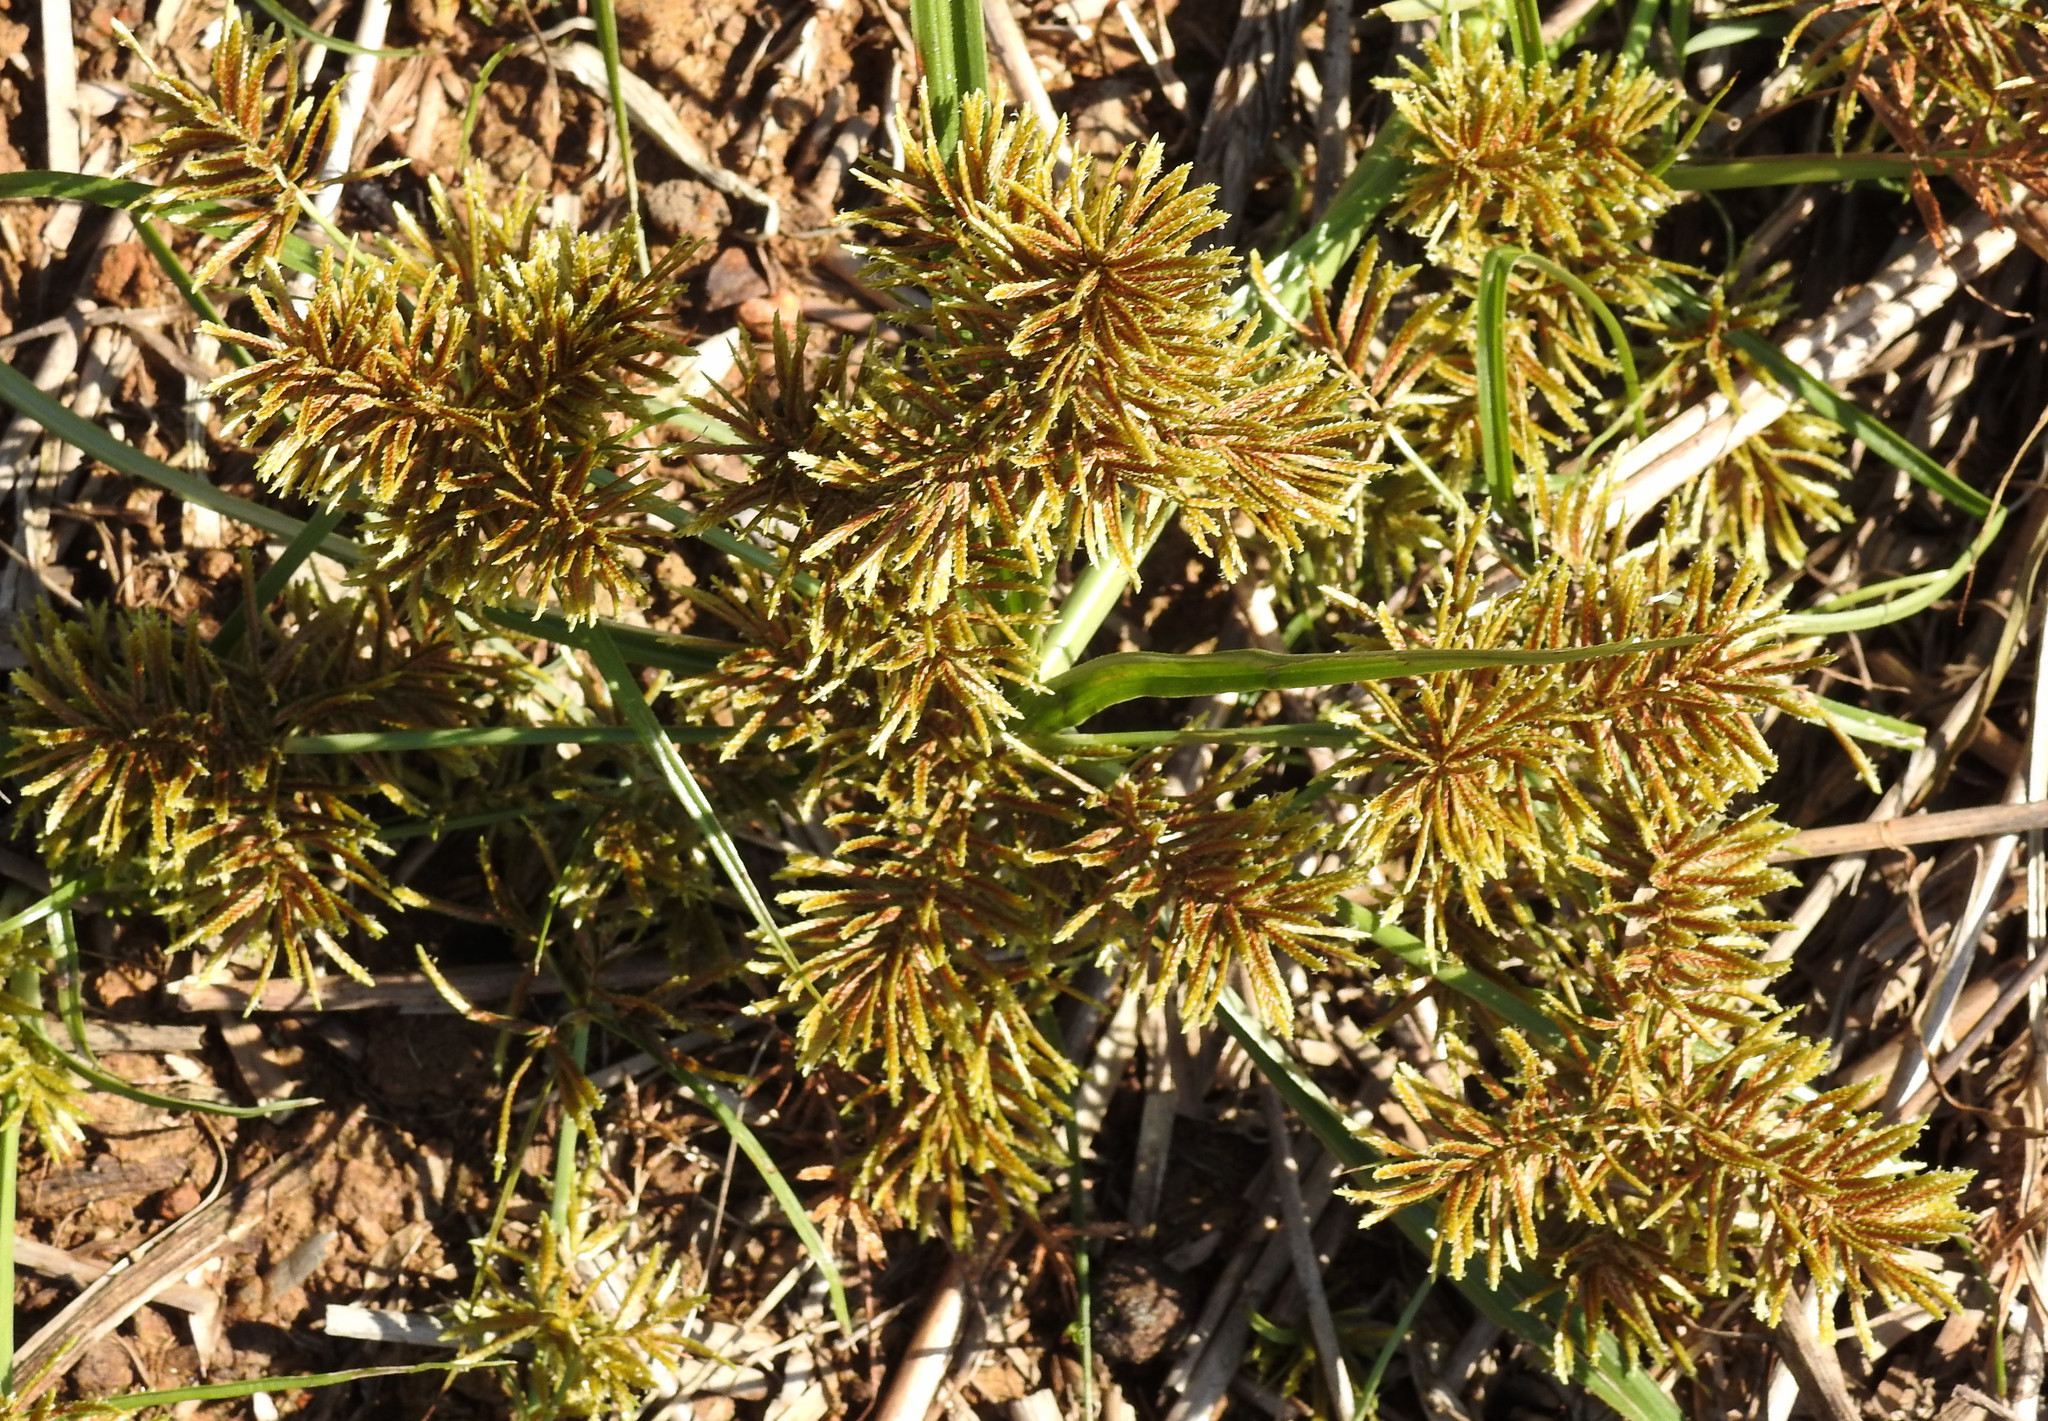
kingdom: Plantae
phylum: Tracheophyta
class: Liliopsida
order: Poales
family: Cyperaceae
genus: Cyperus
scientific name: Cyperus odoratus
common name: Fragrant flatsedge
